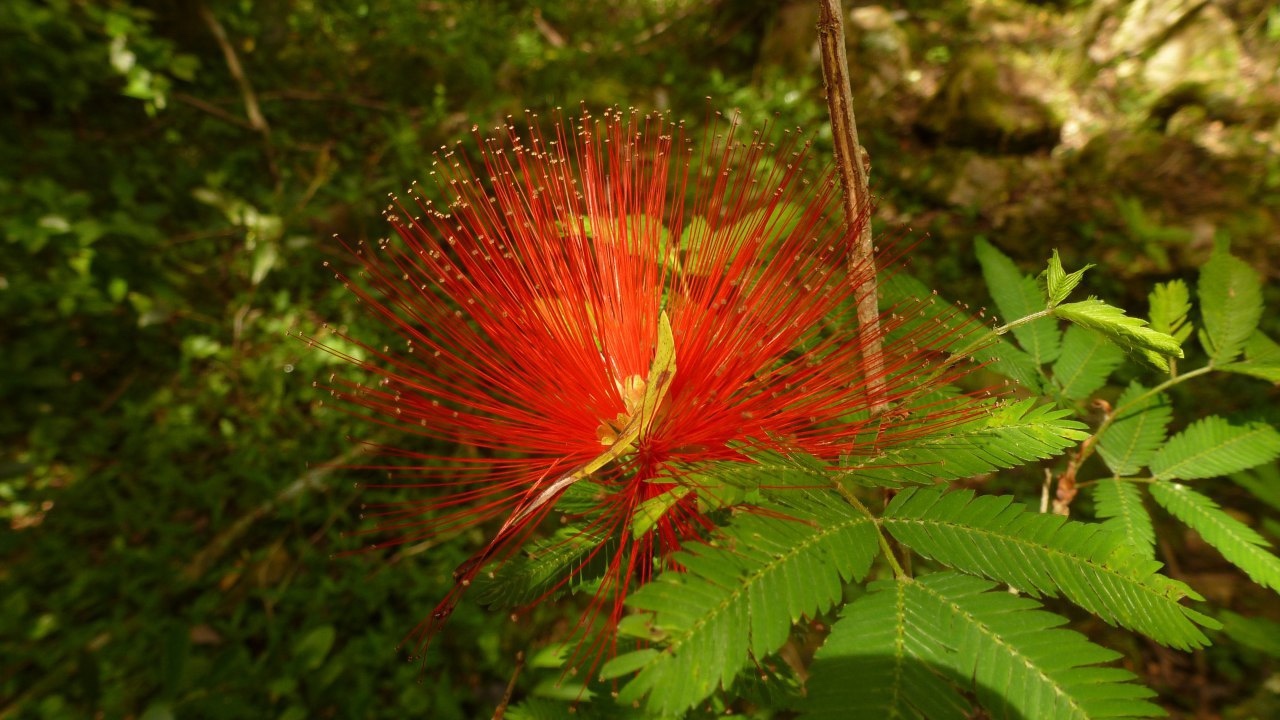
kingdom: Plantae
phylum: Tracheophyta
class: Magnoliopsida
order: Fabales
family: Fabaceae
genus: Calliandra
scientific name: Calliandra tweediei
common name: Mexican flamebush
